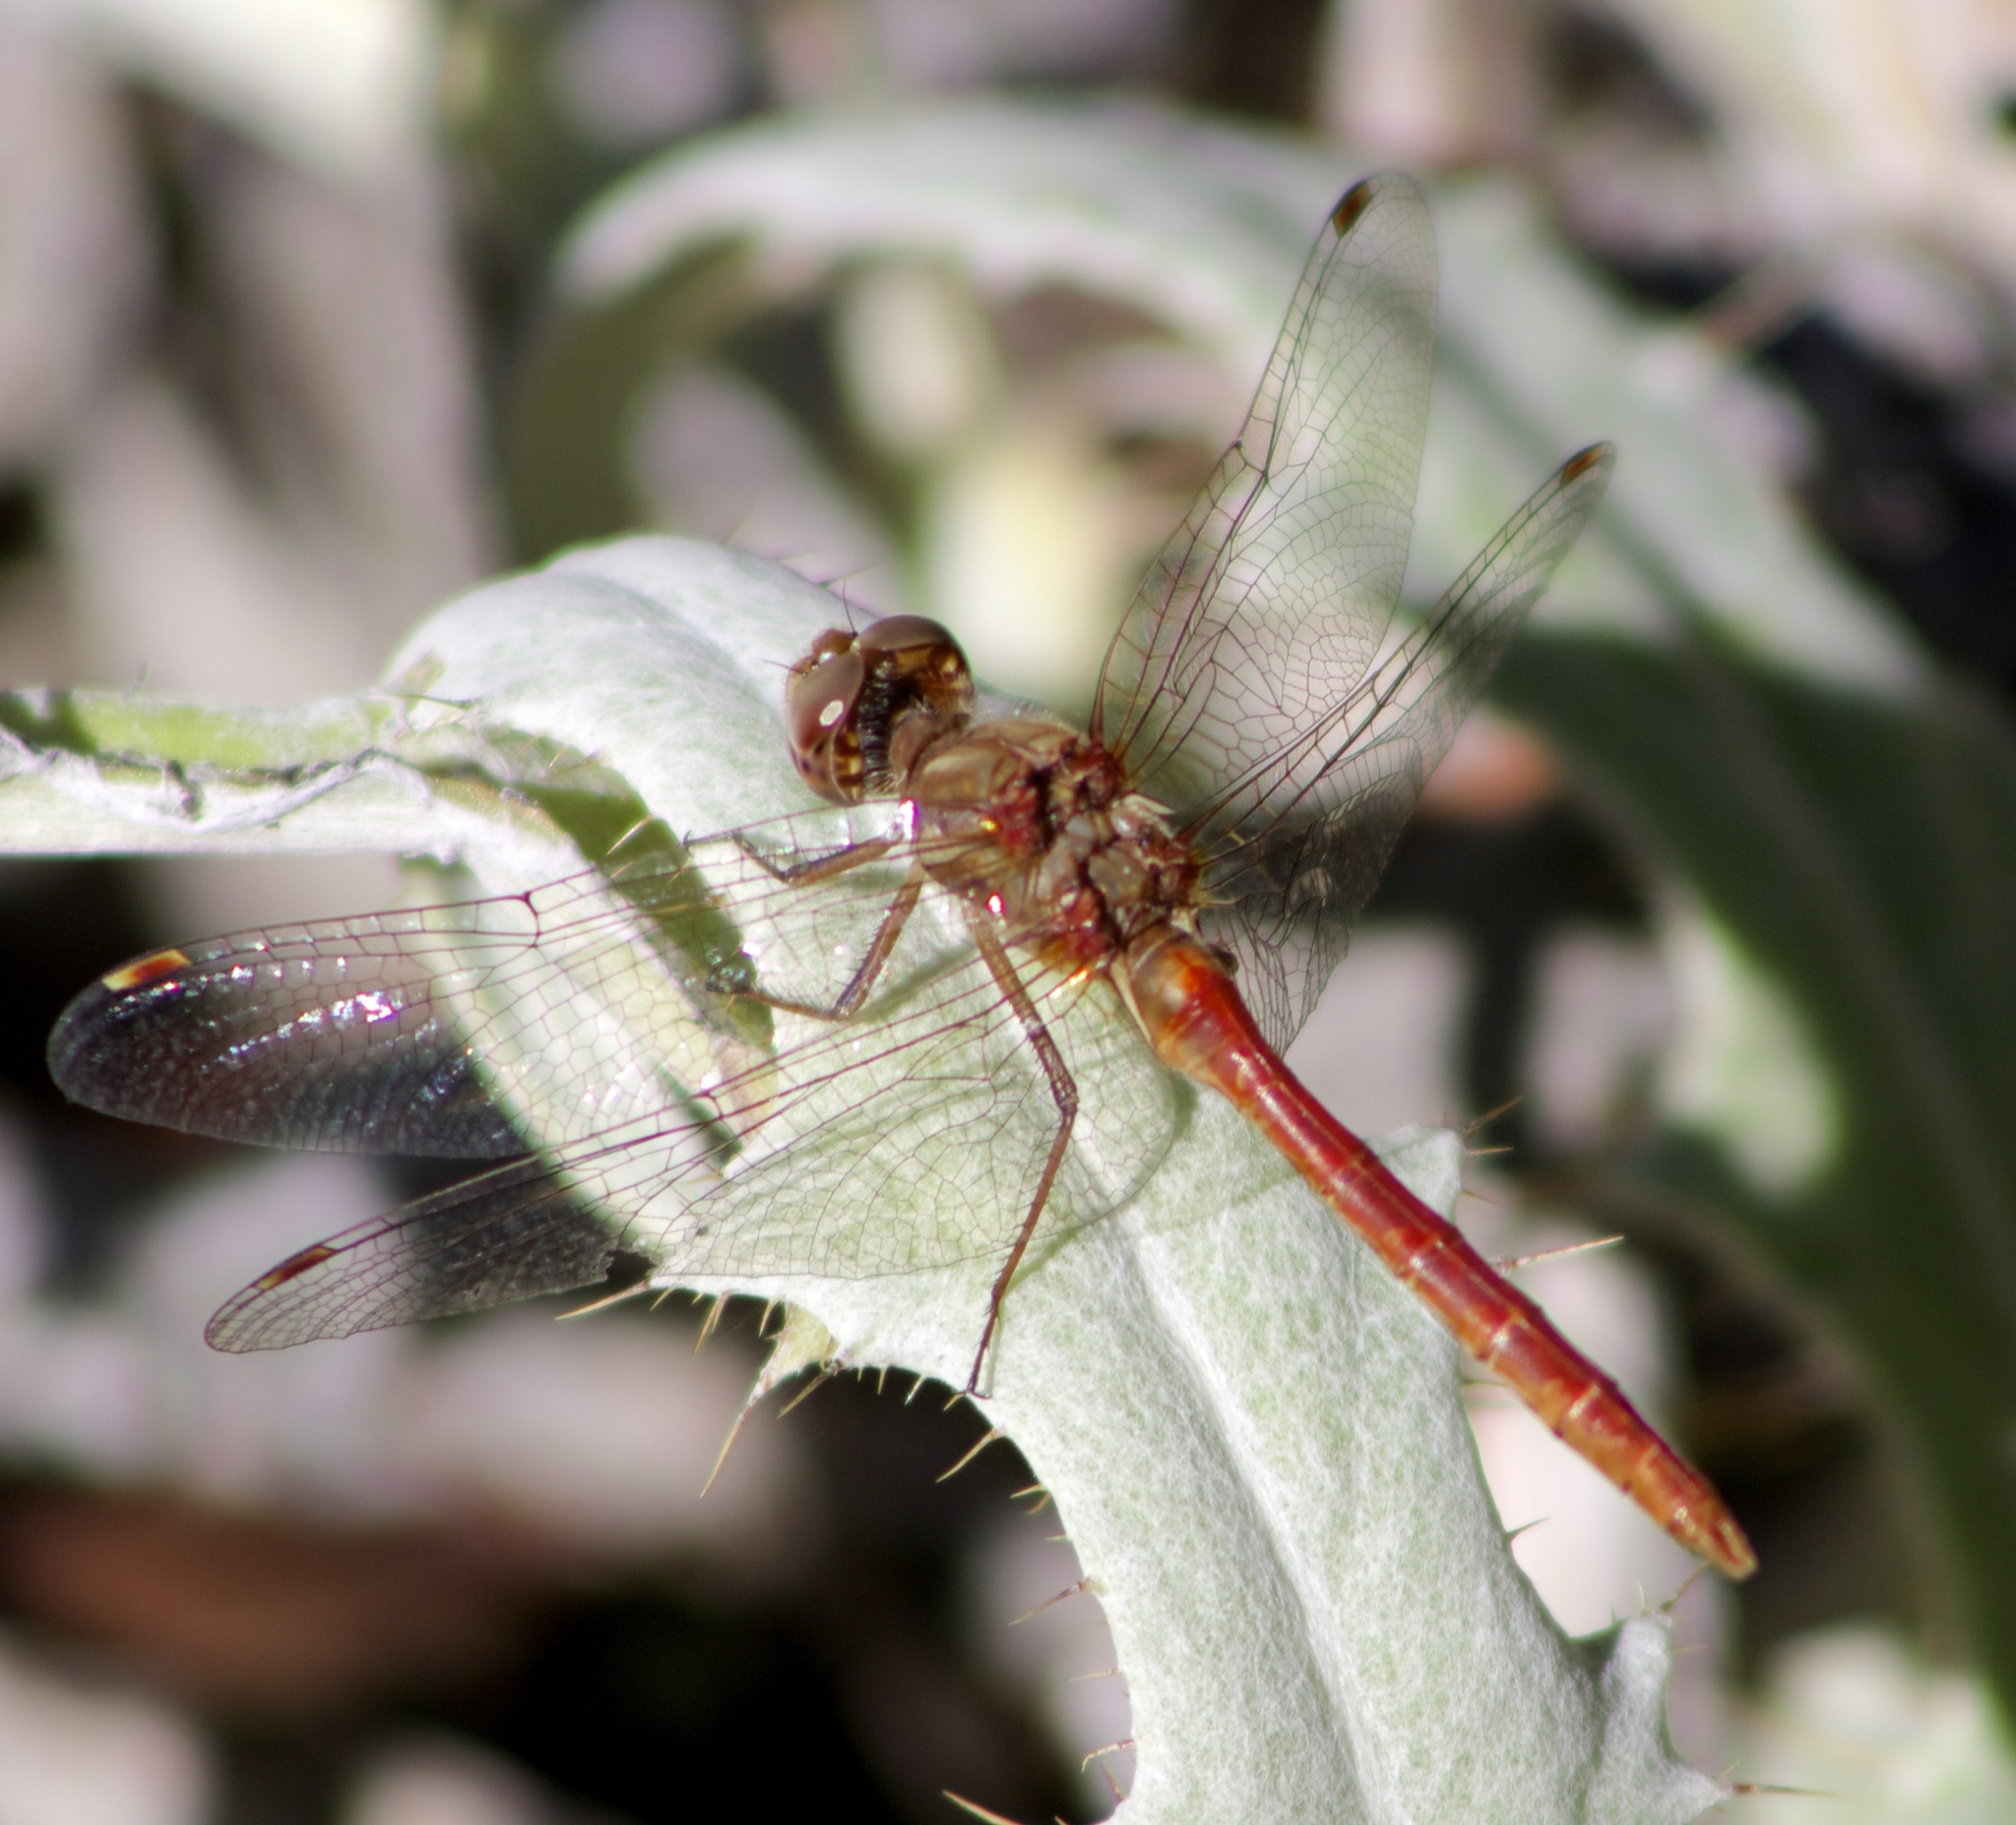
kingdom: Animalia
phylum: Arthropoda
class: Insecta
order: Odonata
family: Libellulidae
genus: Sympetrum
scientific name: Sympetrum pallipes
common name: Striped meadowhawk
